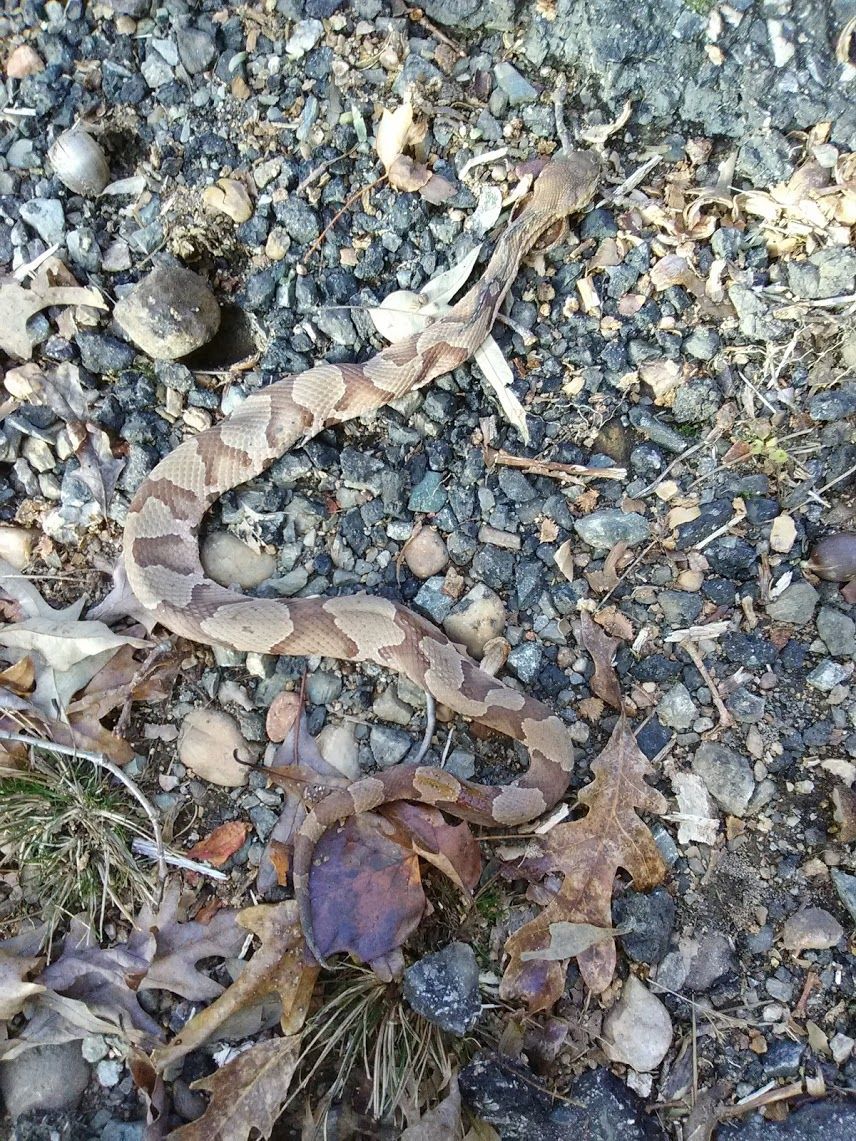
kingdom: Animalia
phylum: Chordata
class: Squamata
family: Viperidae
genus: Agkistrodon
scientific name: Agkistrodon contortrix
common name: Northern copperhead
